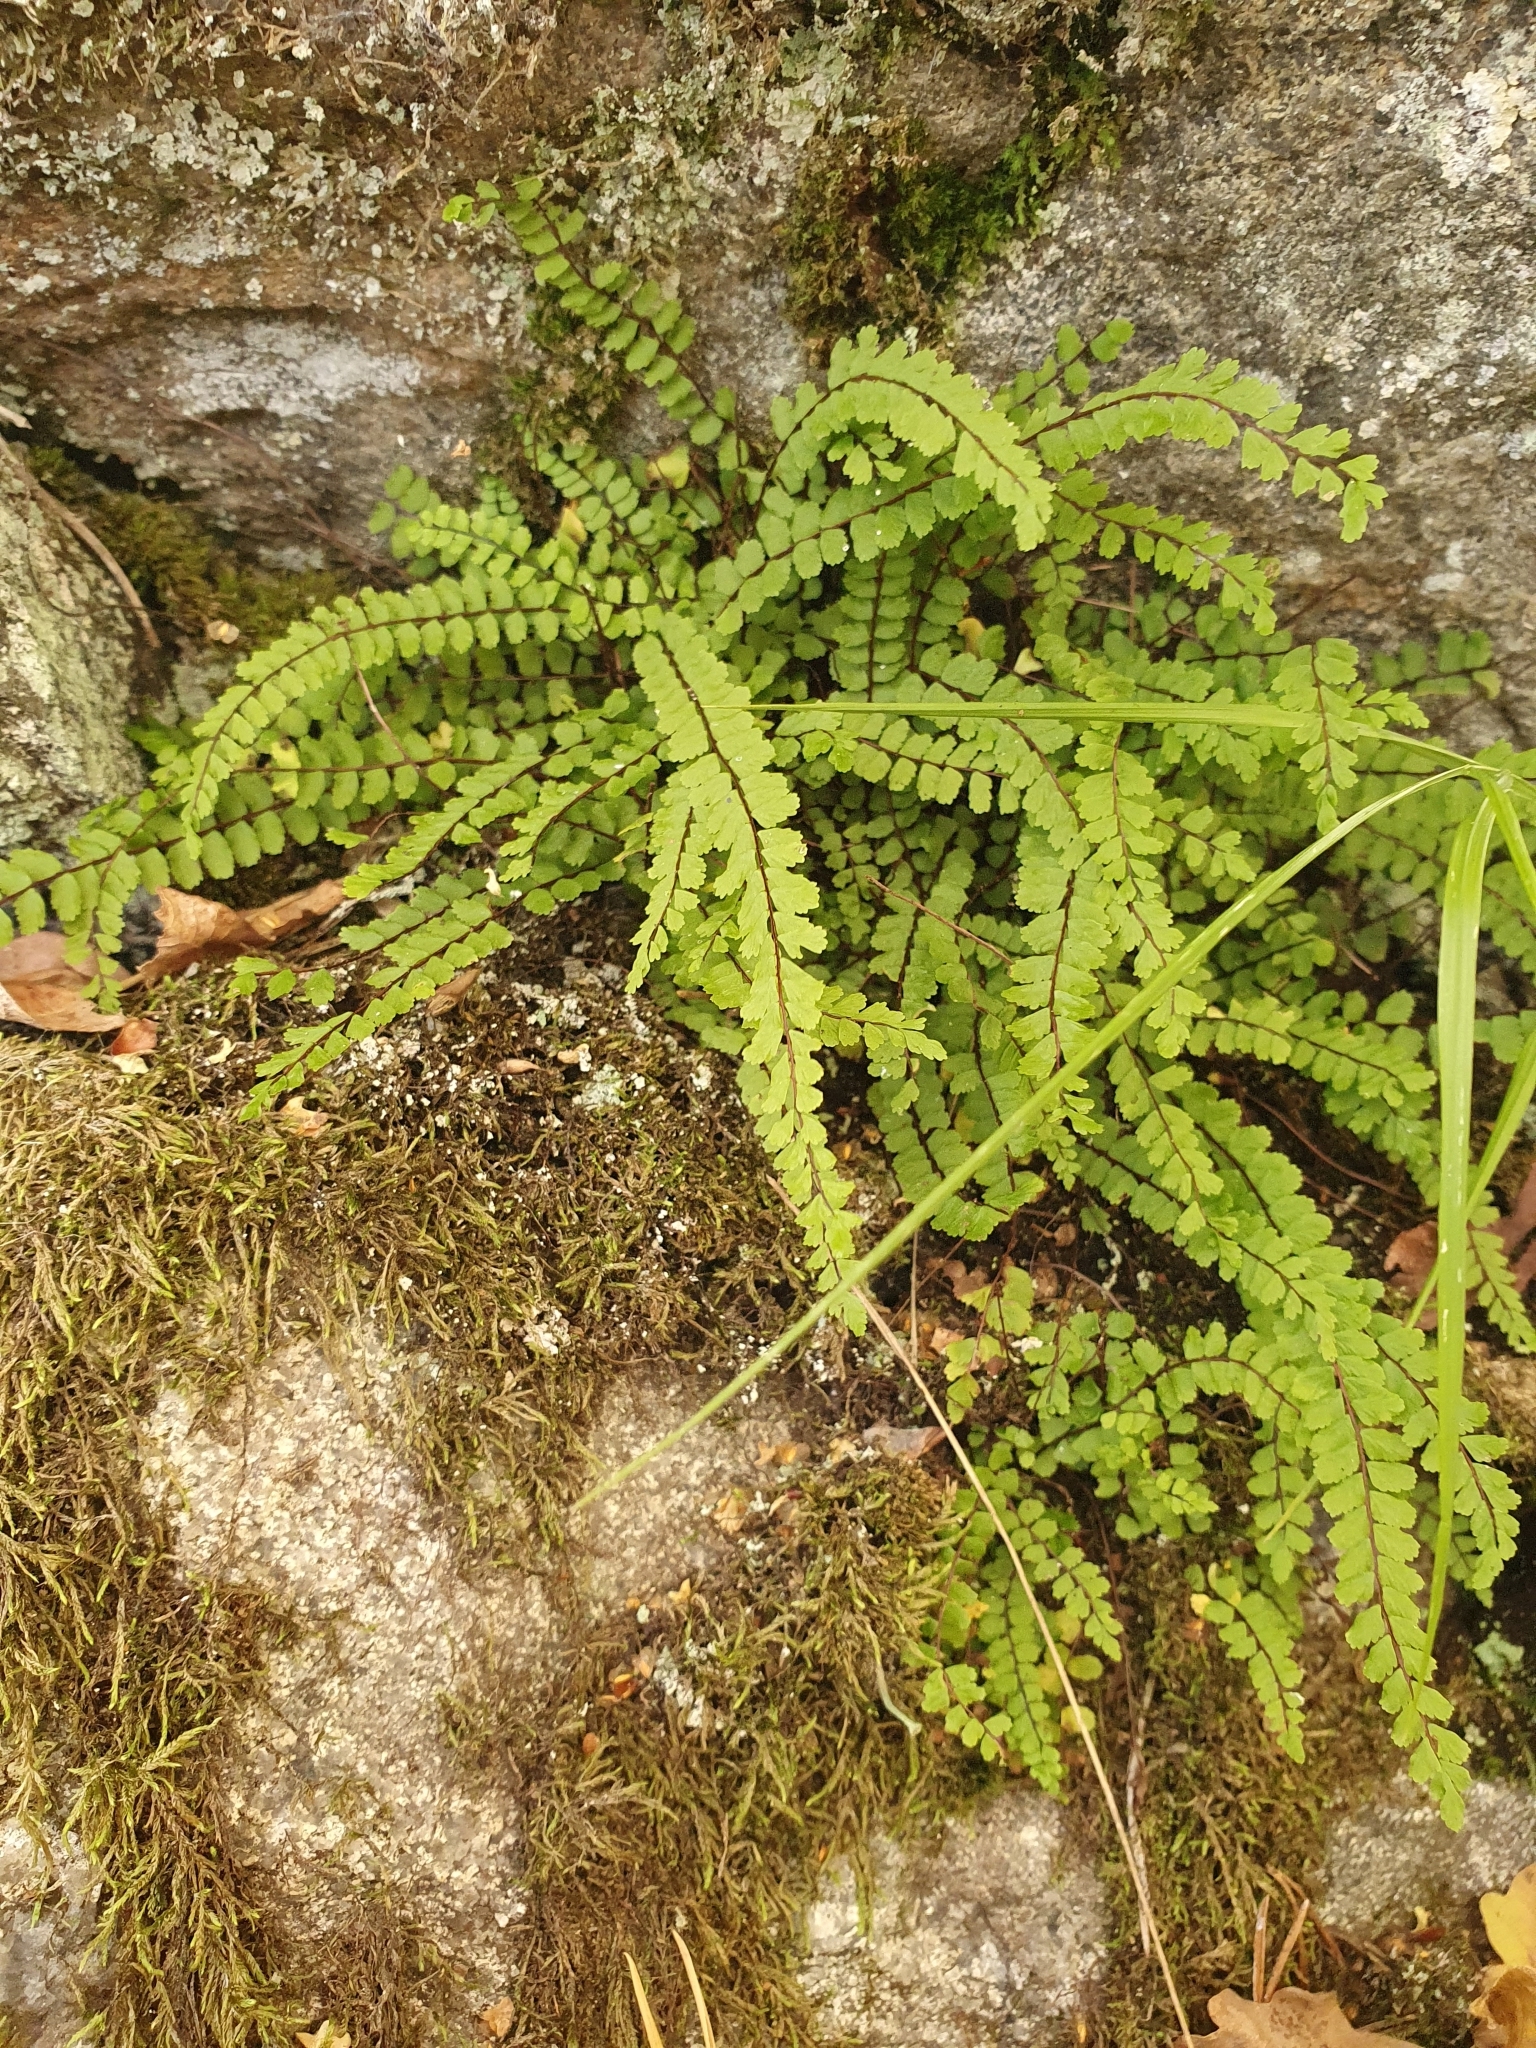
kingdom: Plantae
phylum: Tracheophyta
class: Polypodiopsida
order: Polypodiales
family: Aspleniaceae
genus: Asplenium
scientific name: Asplenium trichomanes
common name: Maidenhair spleenwort
